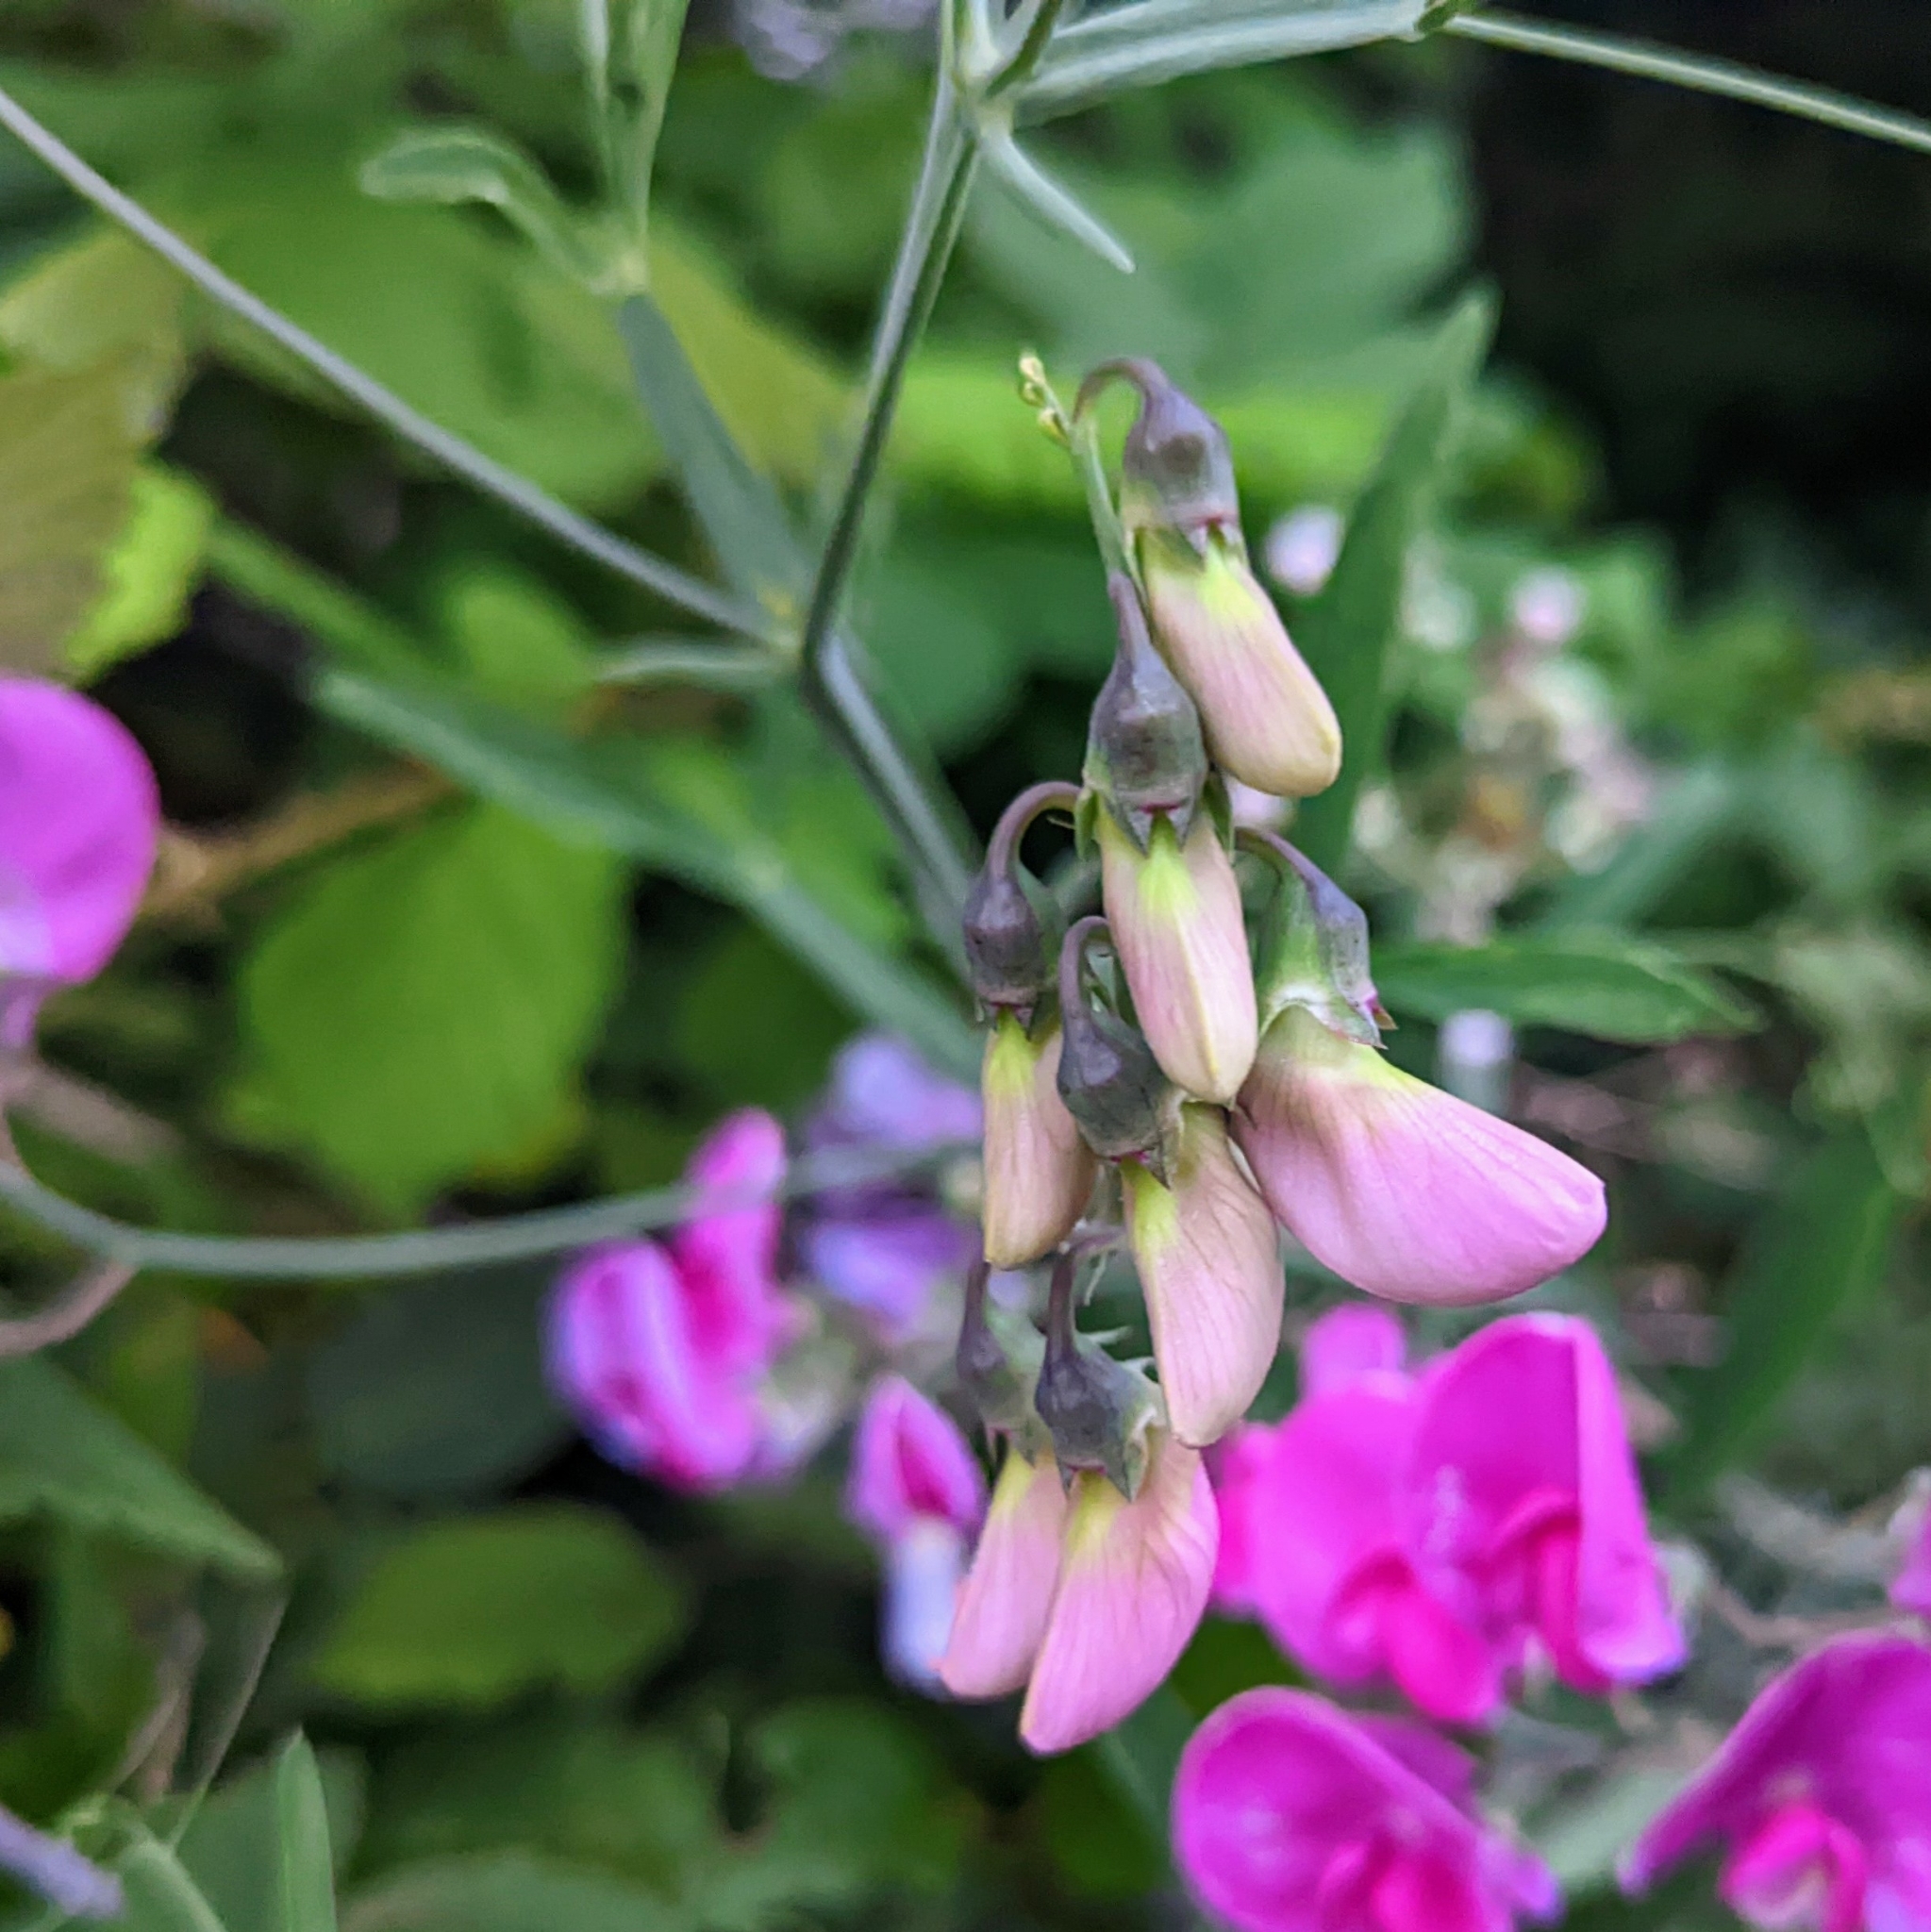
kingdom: Plantae
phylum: Tracheophyta
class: Magnoliopsida
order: Fabales
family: Fabaceae
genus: Lathyrus
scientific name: Lathyrus latifolius
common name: Perennial pea
